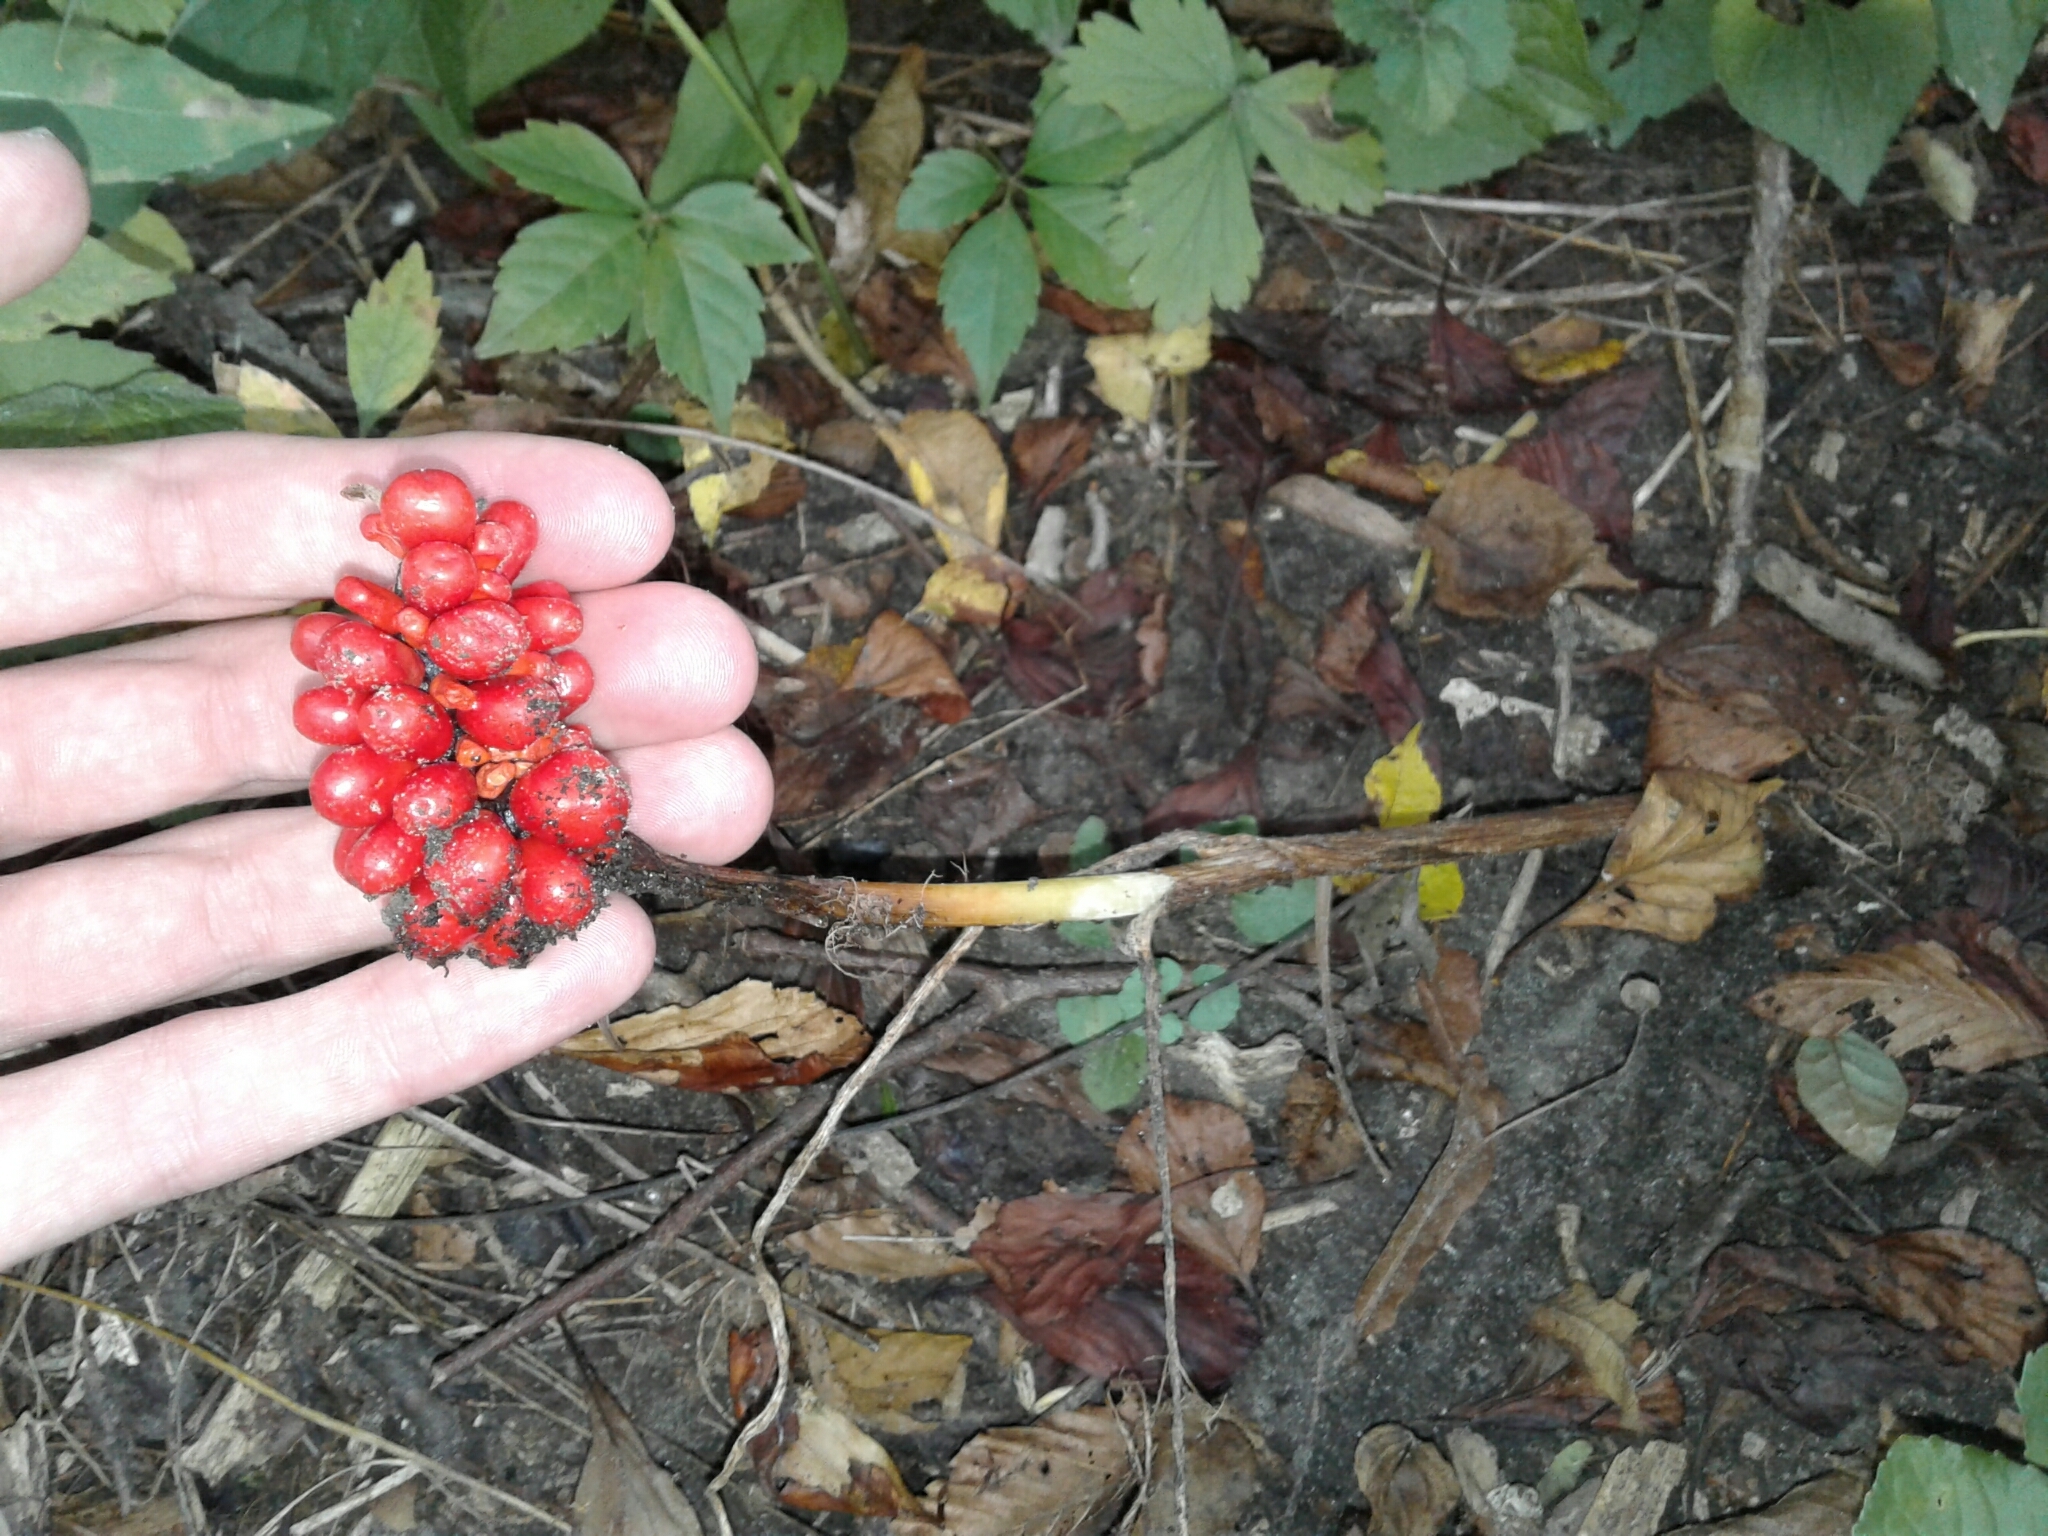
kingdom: Plantae
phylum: Tracheophyta
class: Liliopsida
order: Alismatales
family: Araceae
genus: Arisaema
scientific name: Arisaema triphyllum
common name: Jack-in-the-pulpit
